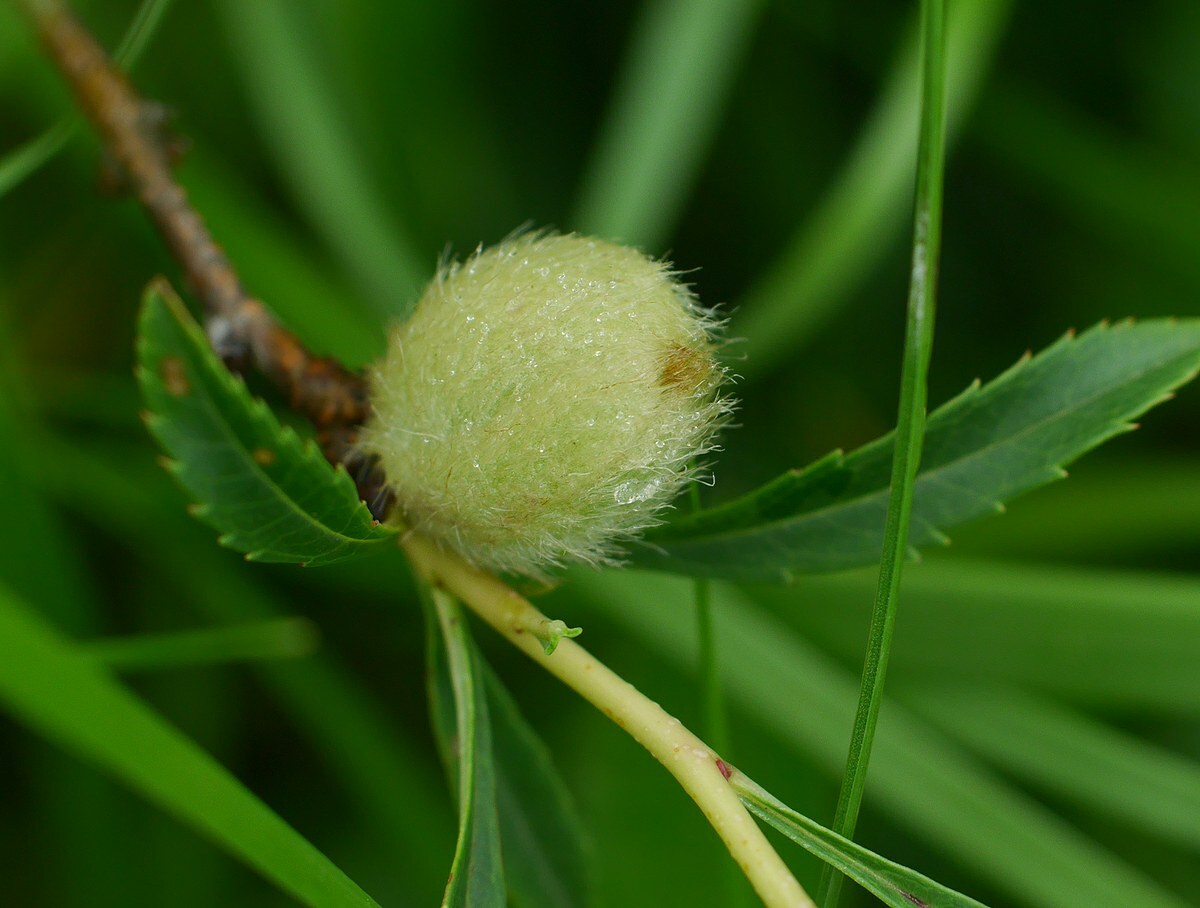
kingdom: Plantae
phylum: Tracheophyta
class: Magnoliopsida
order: Rosales
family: Rosaceae
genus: Prunus
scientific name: Prunus tenella
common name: Dwarf russian almond
